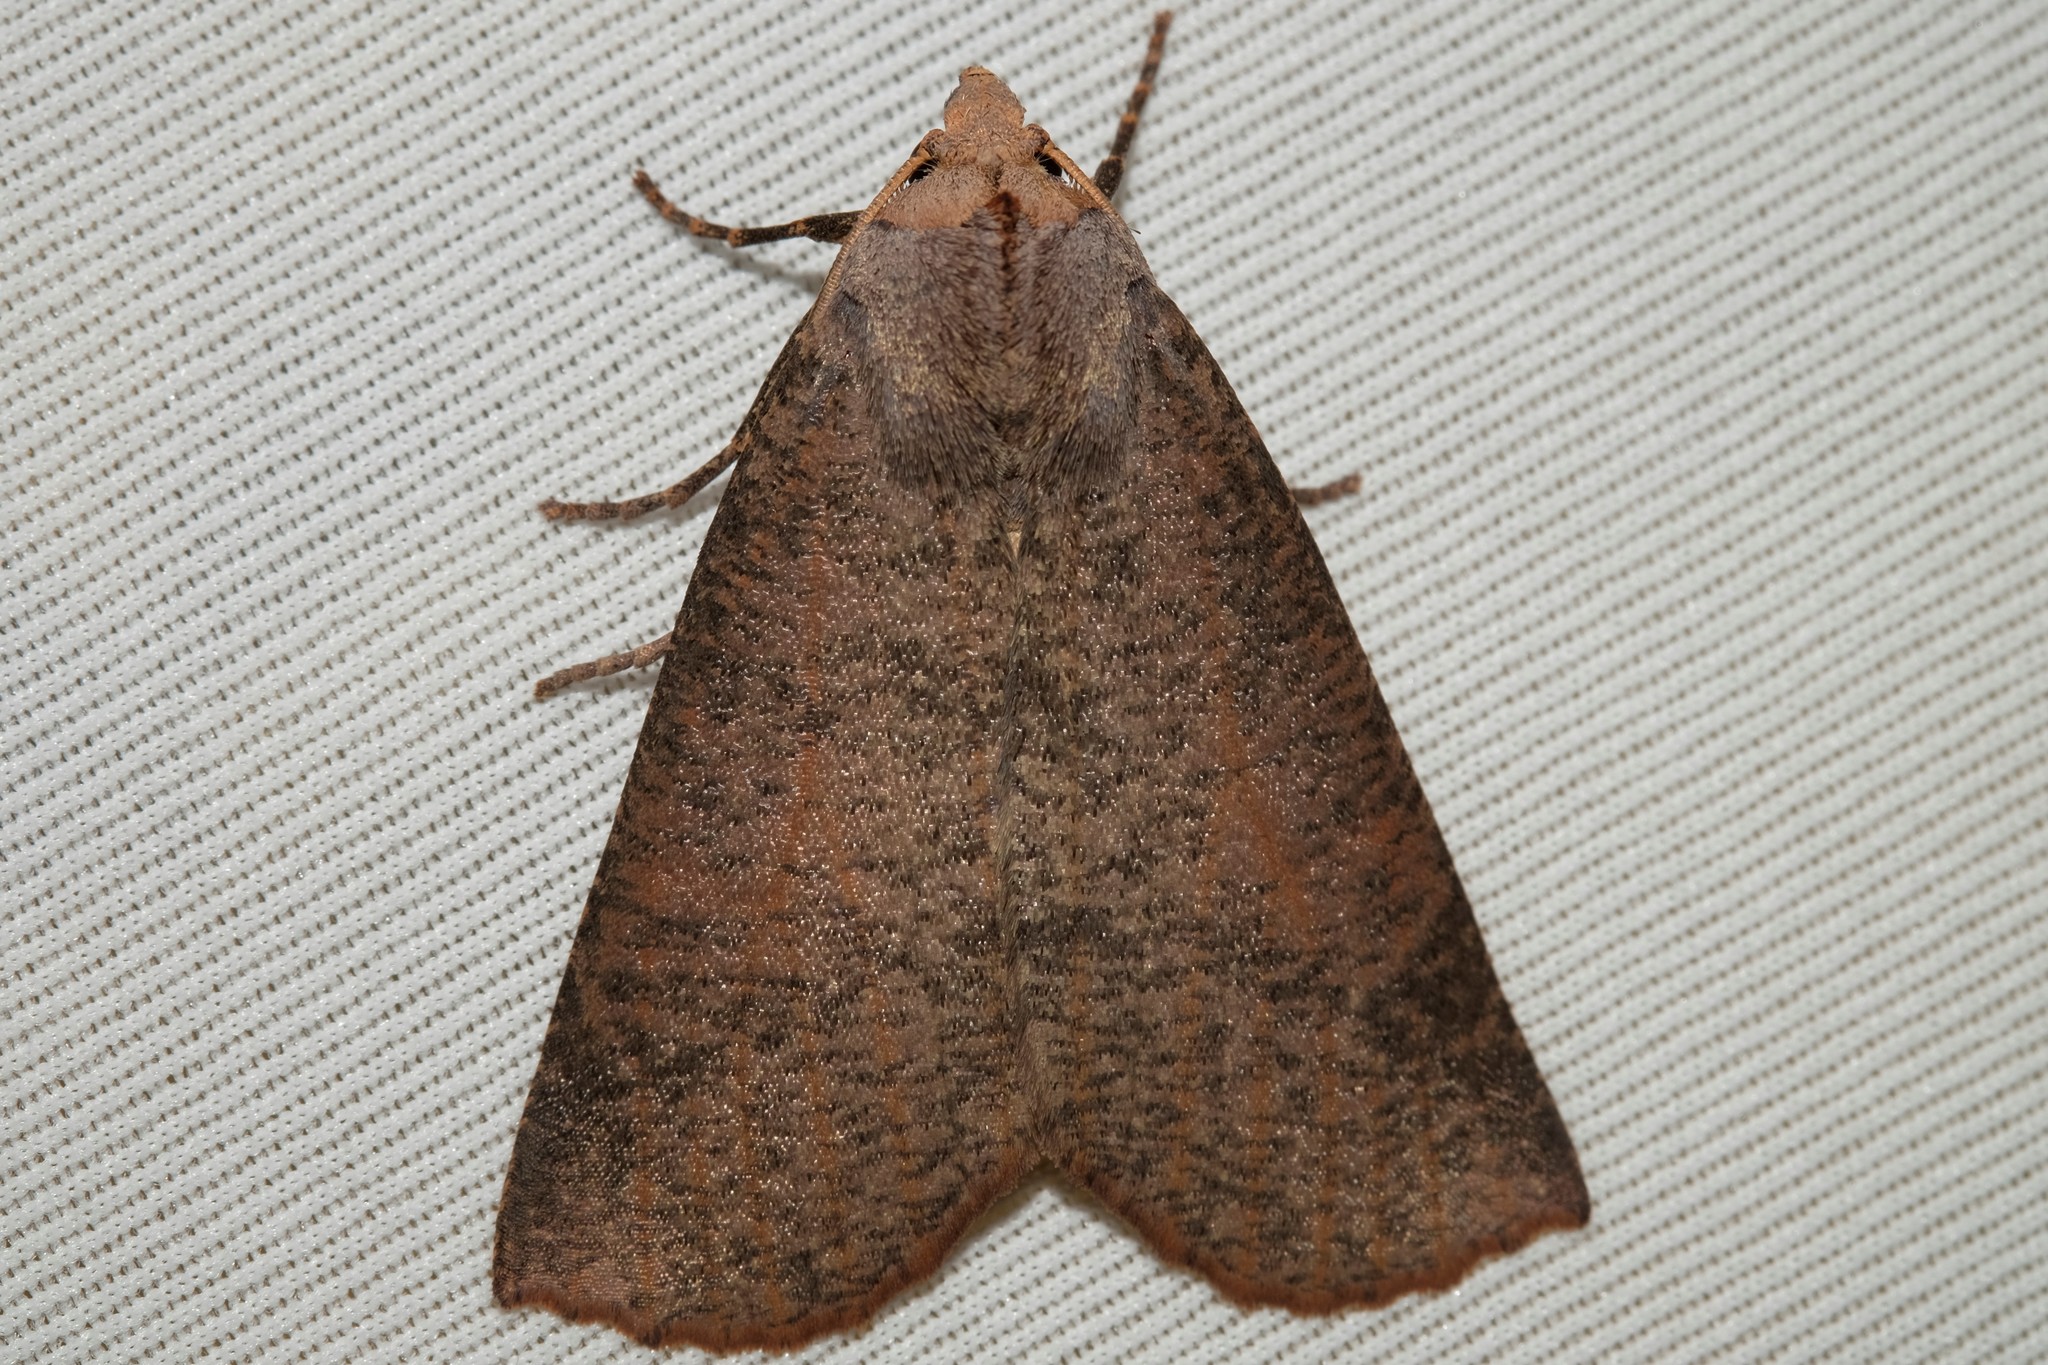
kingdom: Animalia
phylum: Arthropoda
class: Insecta
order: Lepidoptera
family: Geometridae
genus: Fisera
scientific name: Fisera eribola
